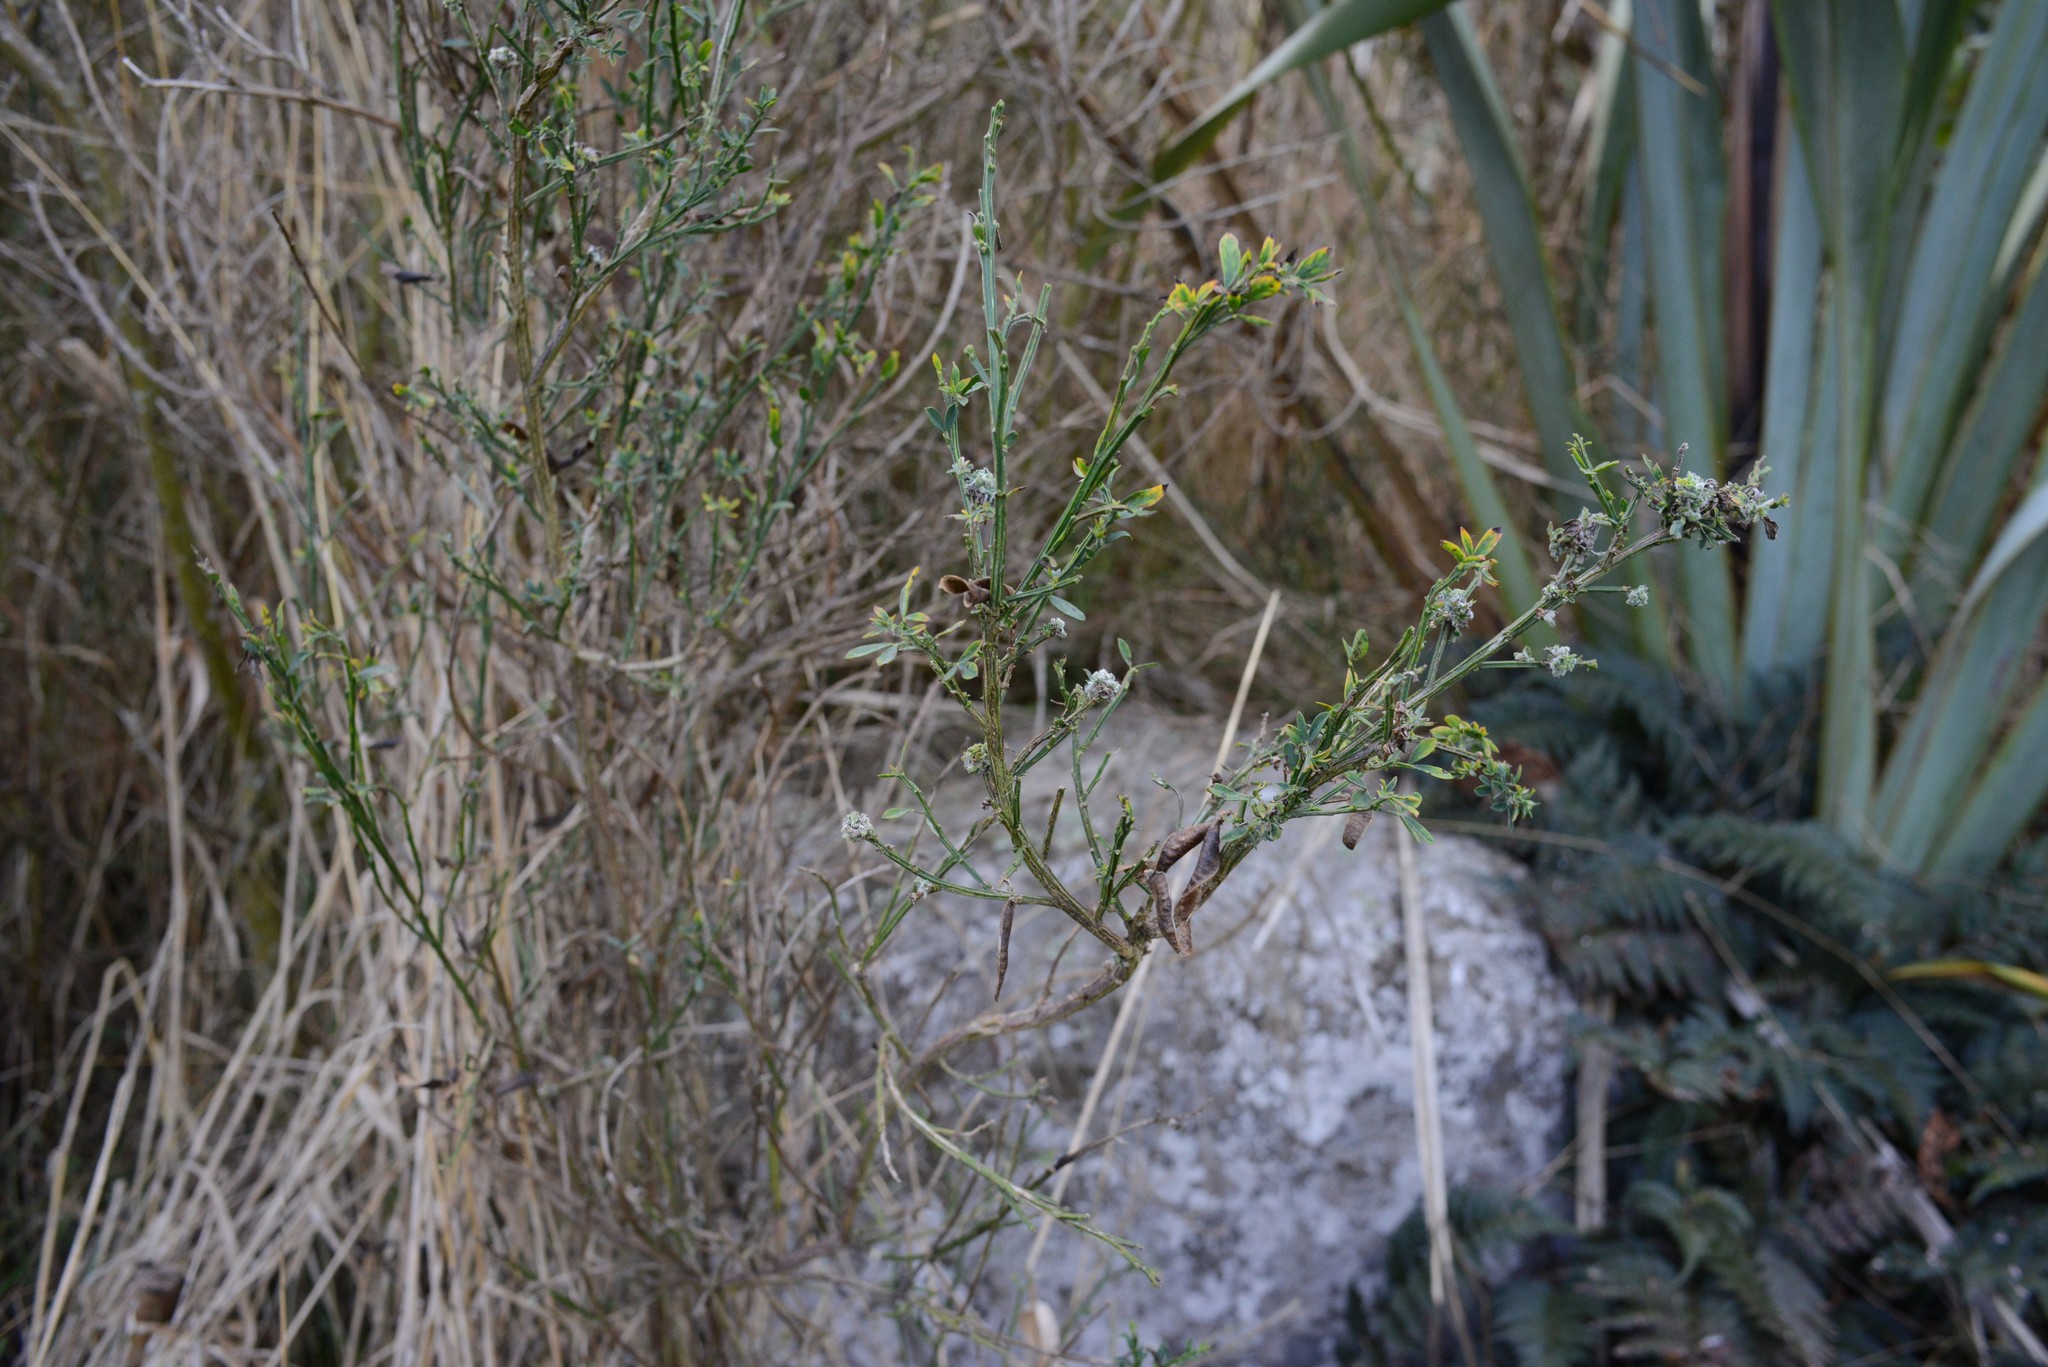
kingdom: Plantae
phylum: Tracheophyta
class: Magnoliopsida
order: Fabales
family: Fabaceae
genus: Cytisus
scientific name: Cytisus scoparius
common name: Scotch broom
